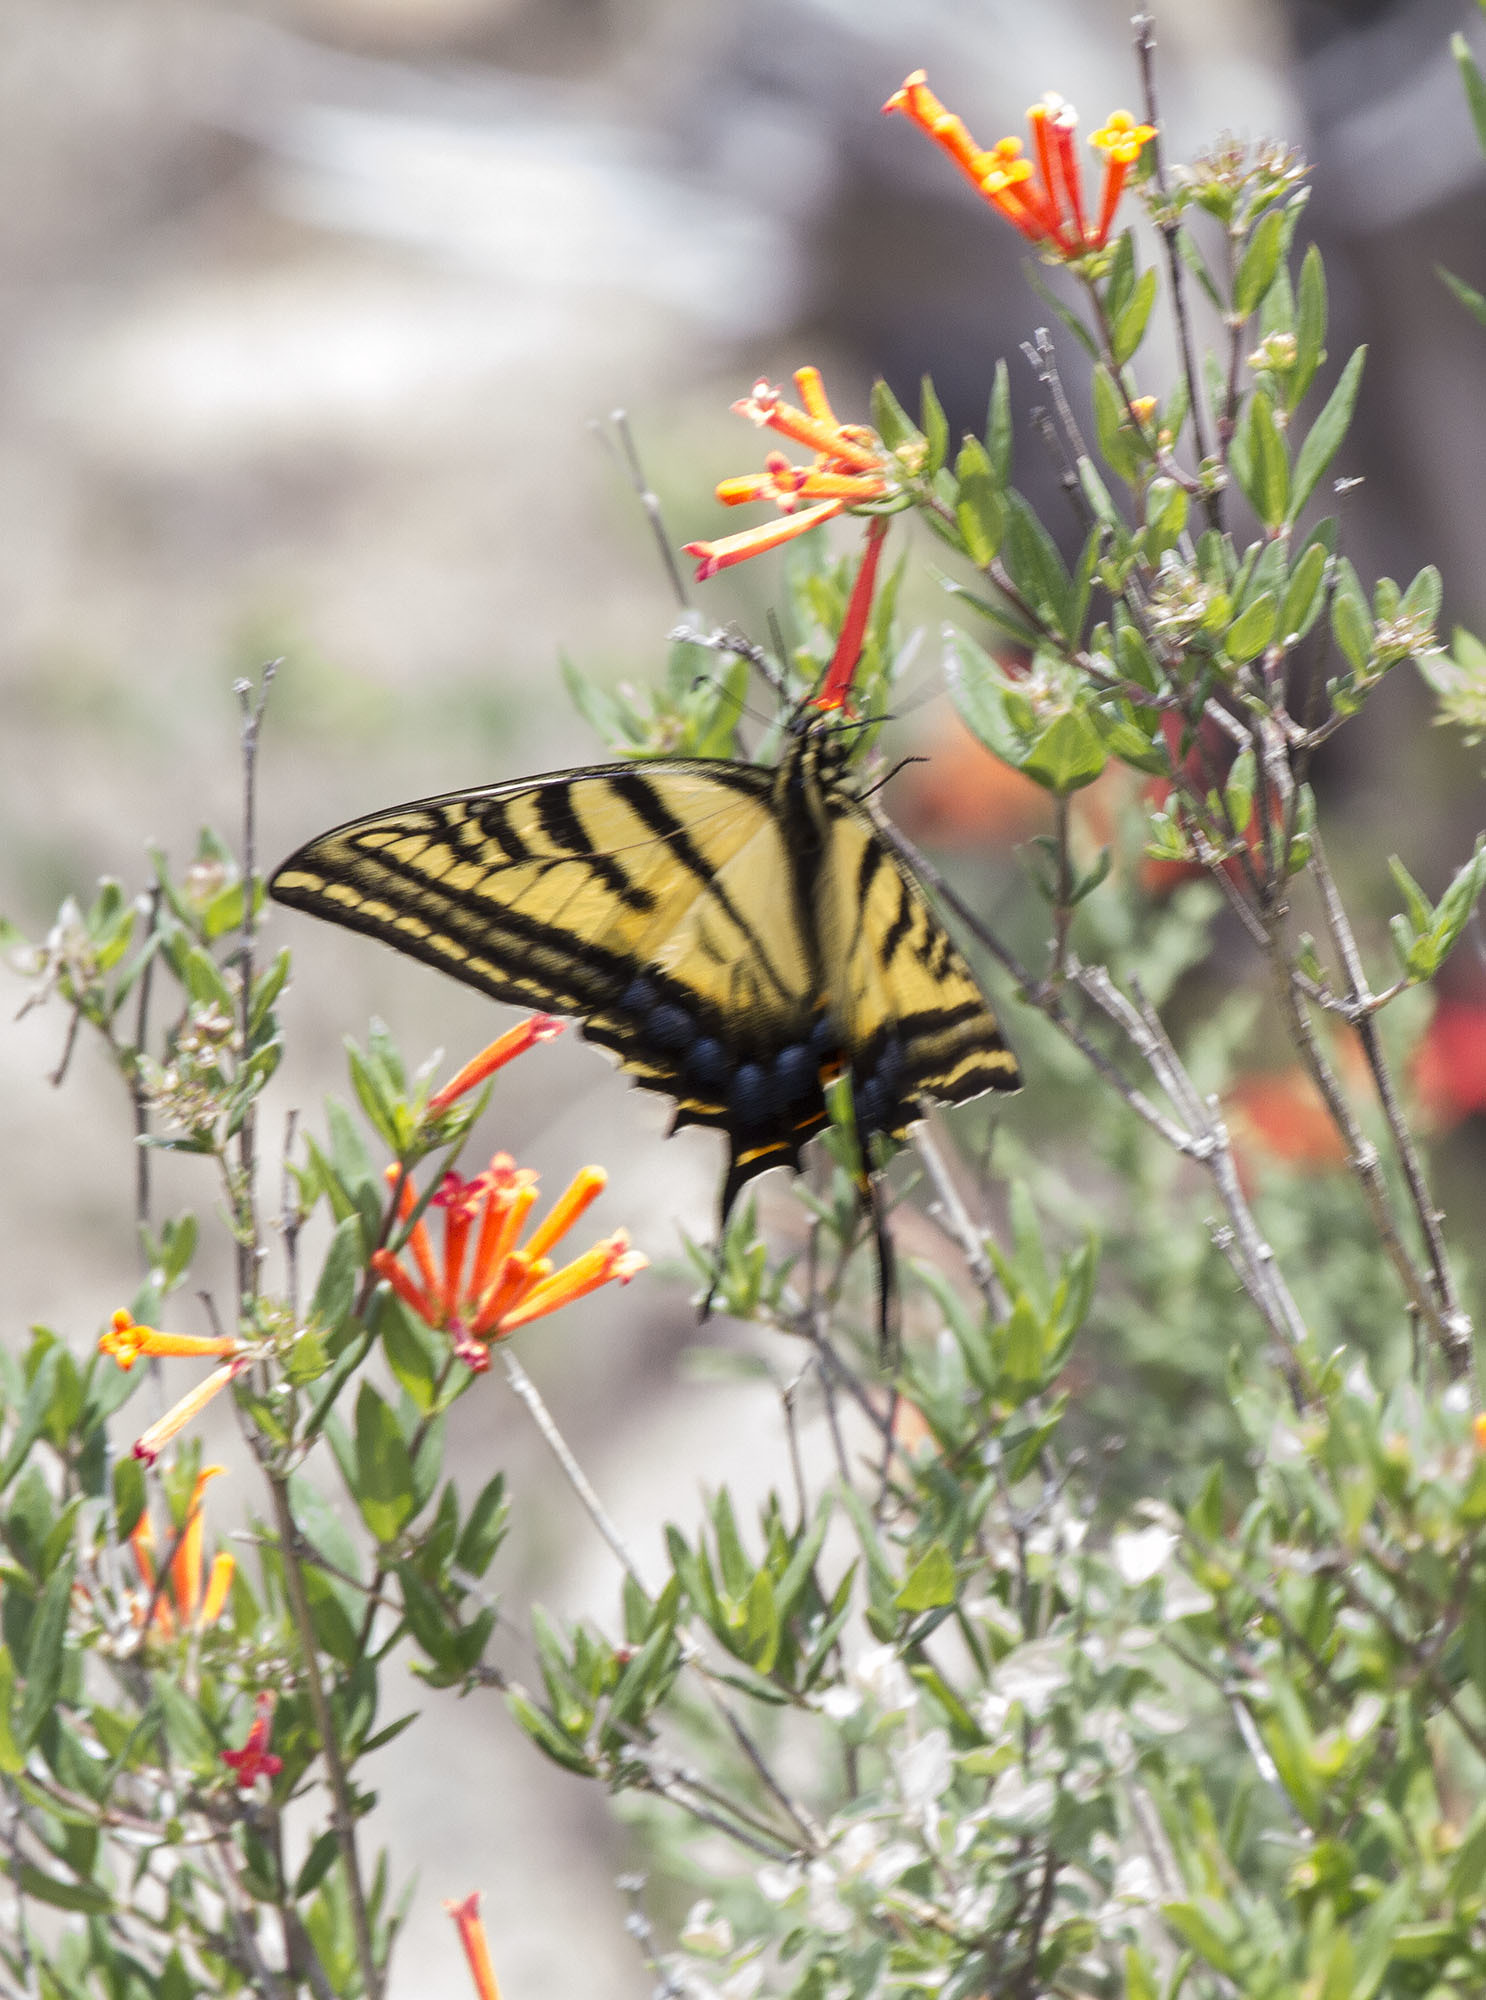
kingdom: Animalia
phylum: Arthropoda
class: Insecta
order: Lepidoptera
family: Papilionidae
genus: Papilio
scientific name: Papilio multicaudata
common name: Two-tailed tiger swallowtail
